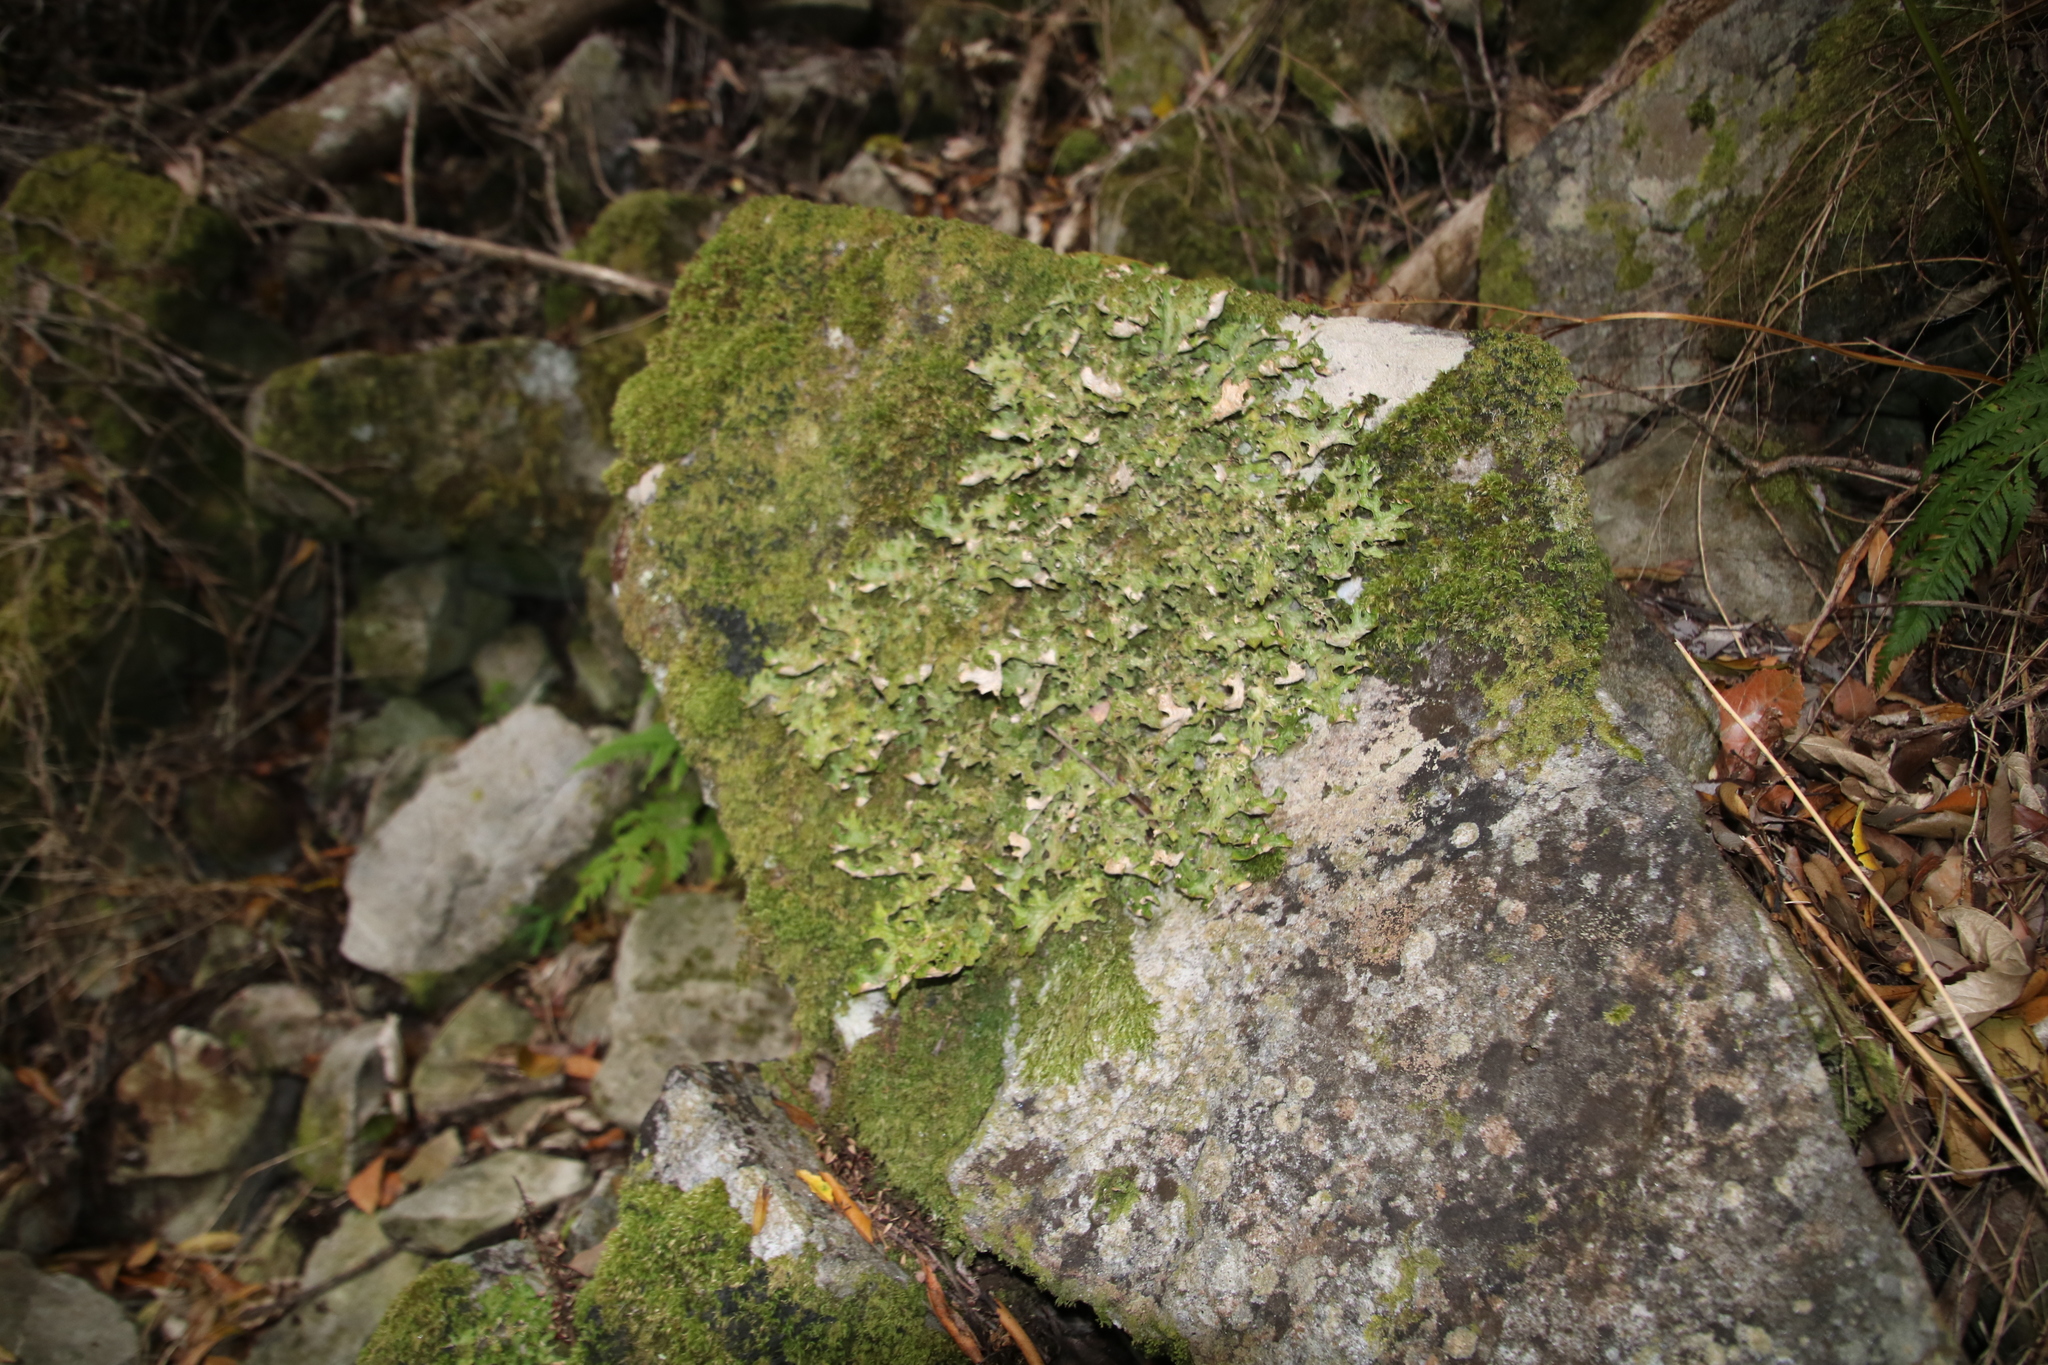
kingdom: Fungi
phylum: Ascomycota
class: Lecanoromycetes
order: Peltigerales
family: Lobariaceae
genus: Lobaria
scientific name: Lobaria pulmonaria
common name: Lungwort
